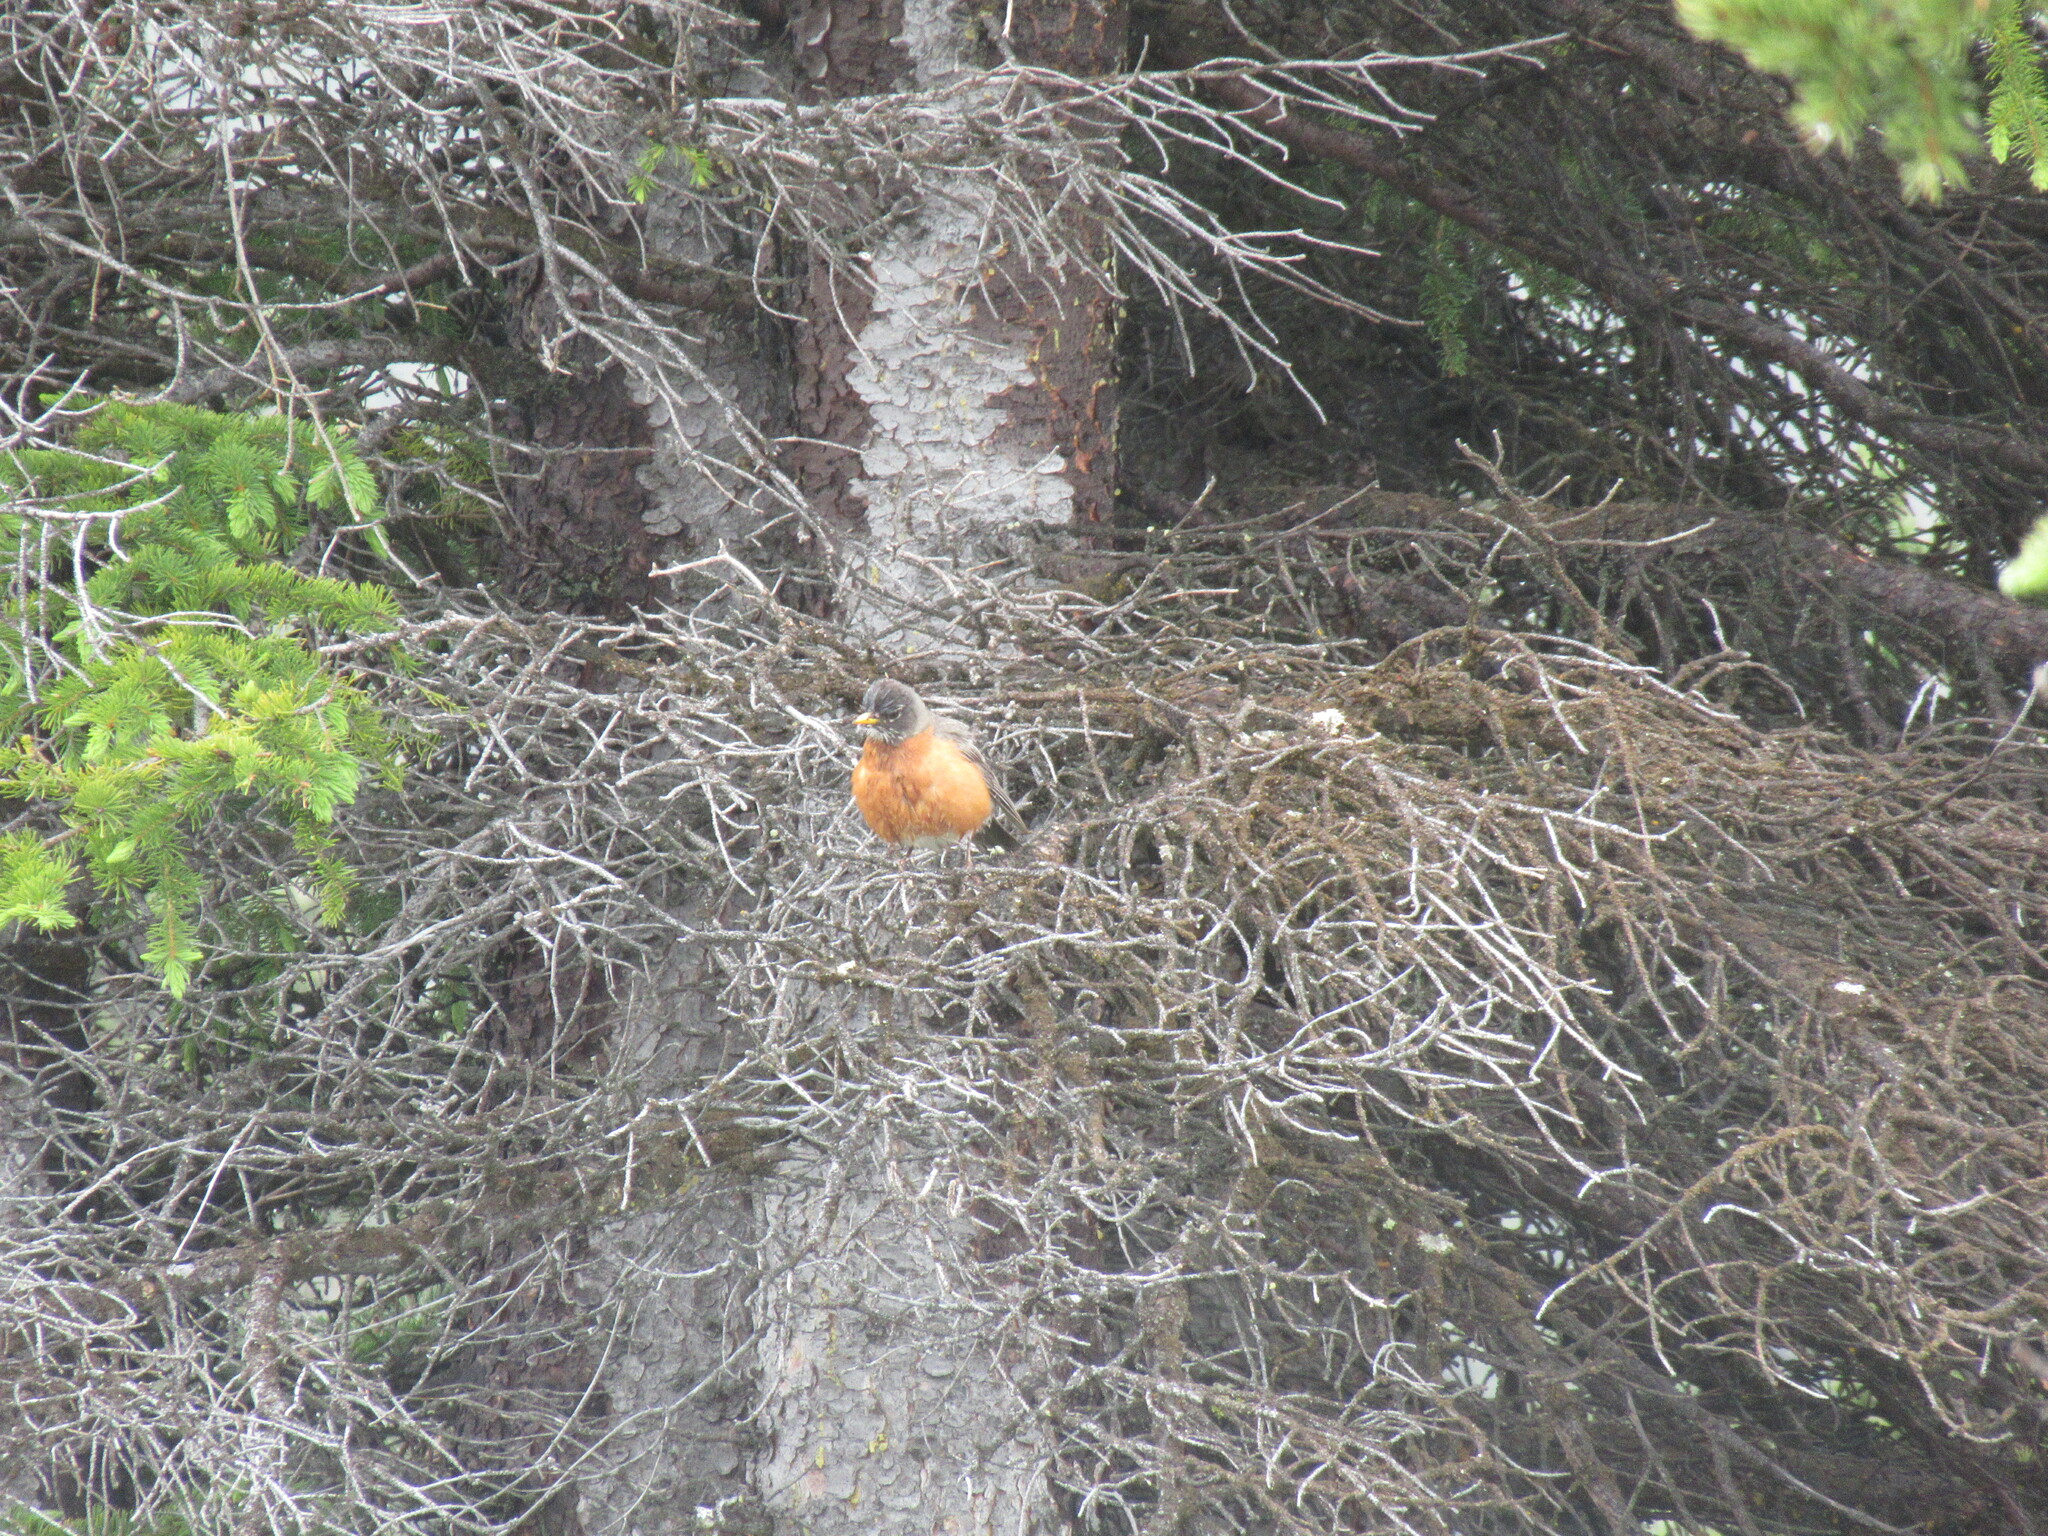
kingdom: Animalia
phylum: Chordata
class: Aves
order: Passeriformes
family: Turdidae
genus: Turdus
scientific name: Turdus migratorius
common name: American robin
